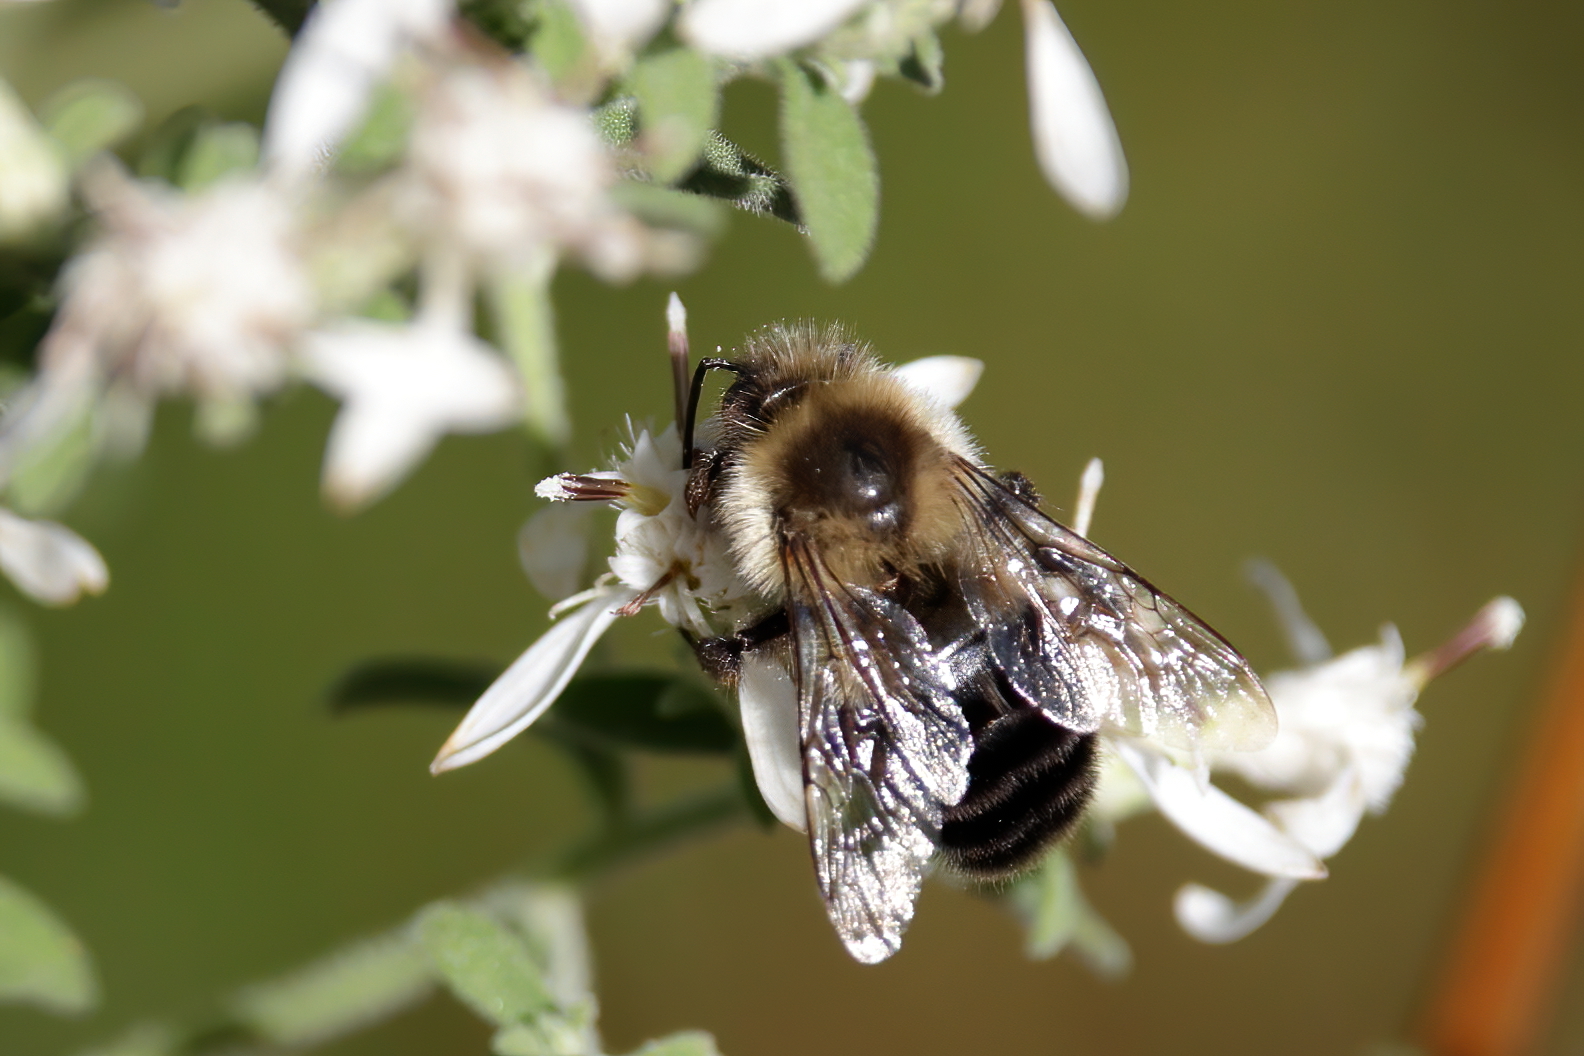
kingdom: Animalia
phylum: Arthropoda
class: Insecta
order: Hymenoptera
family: Apidae
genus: Bombus
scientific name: Bombus impatiens
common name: Common eastern bumble bee
